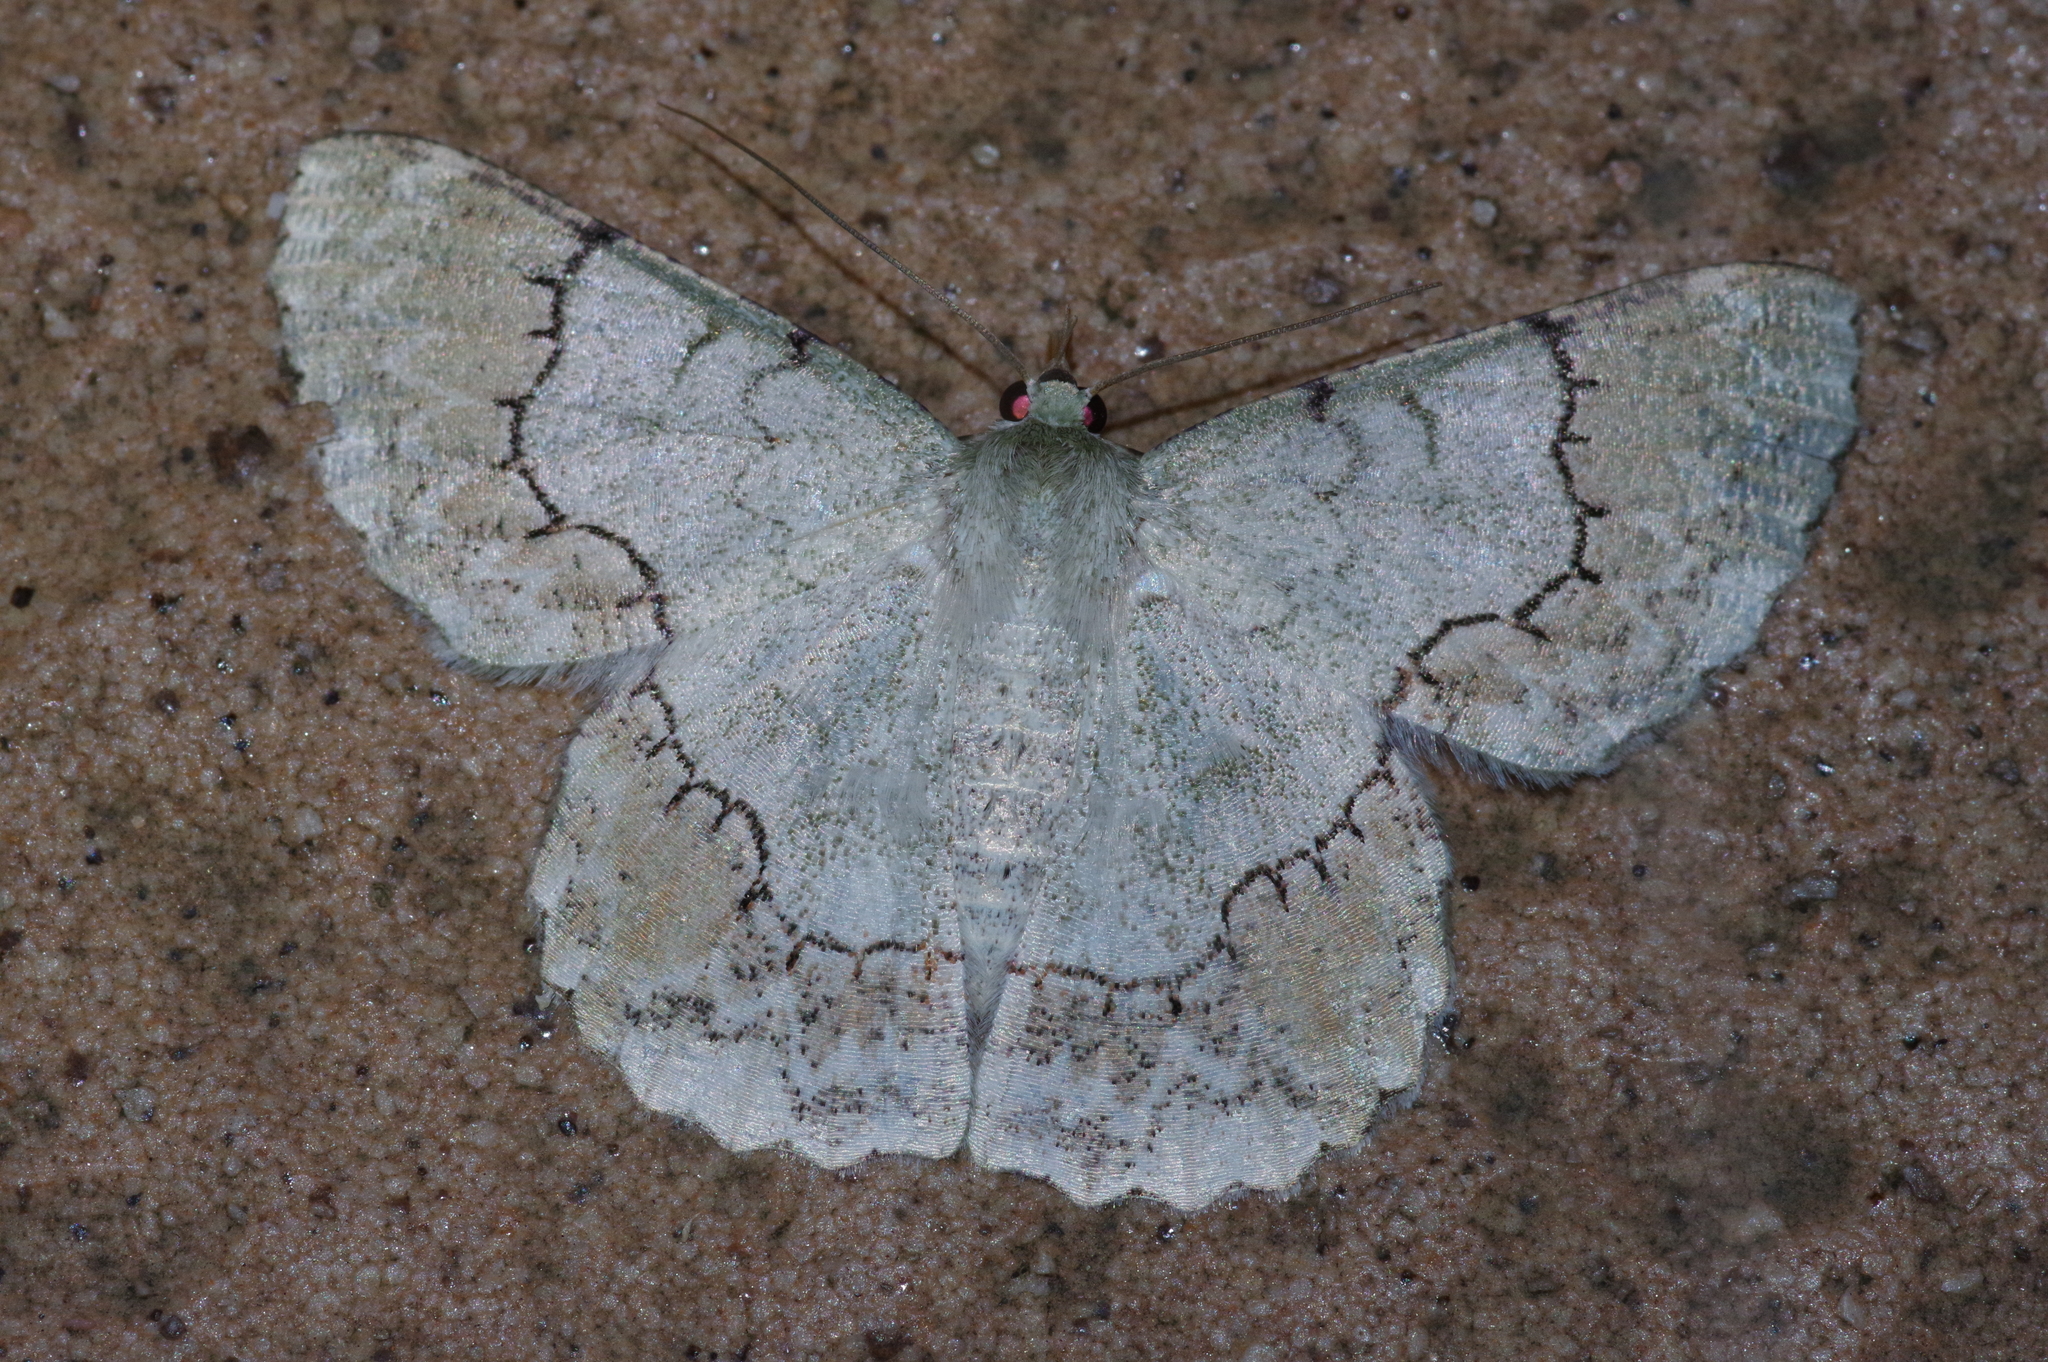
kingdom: Animalia
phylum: Arthropoda
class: Insecta
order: Lepidoptera
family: Geometridae
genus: Pingasa
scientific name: Pingasa ruginaria
